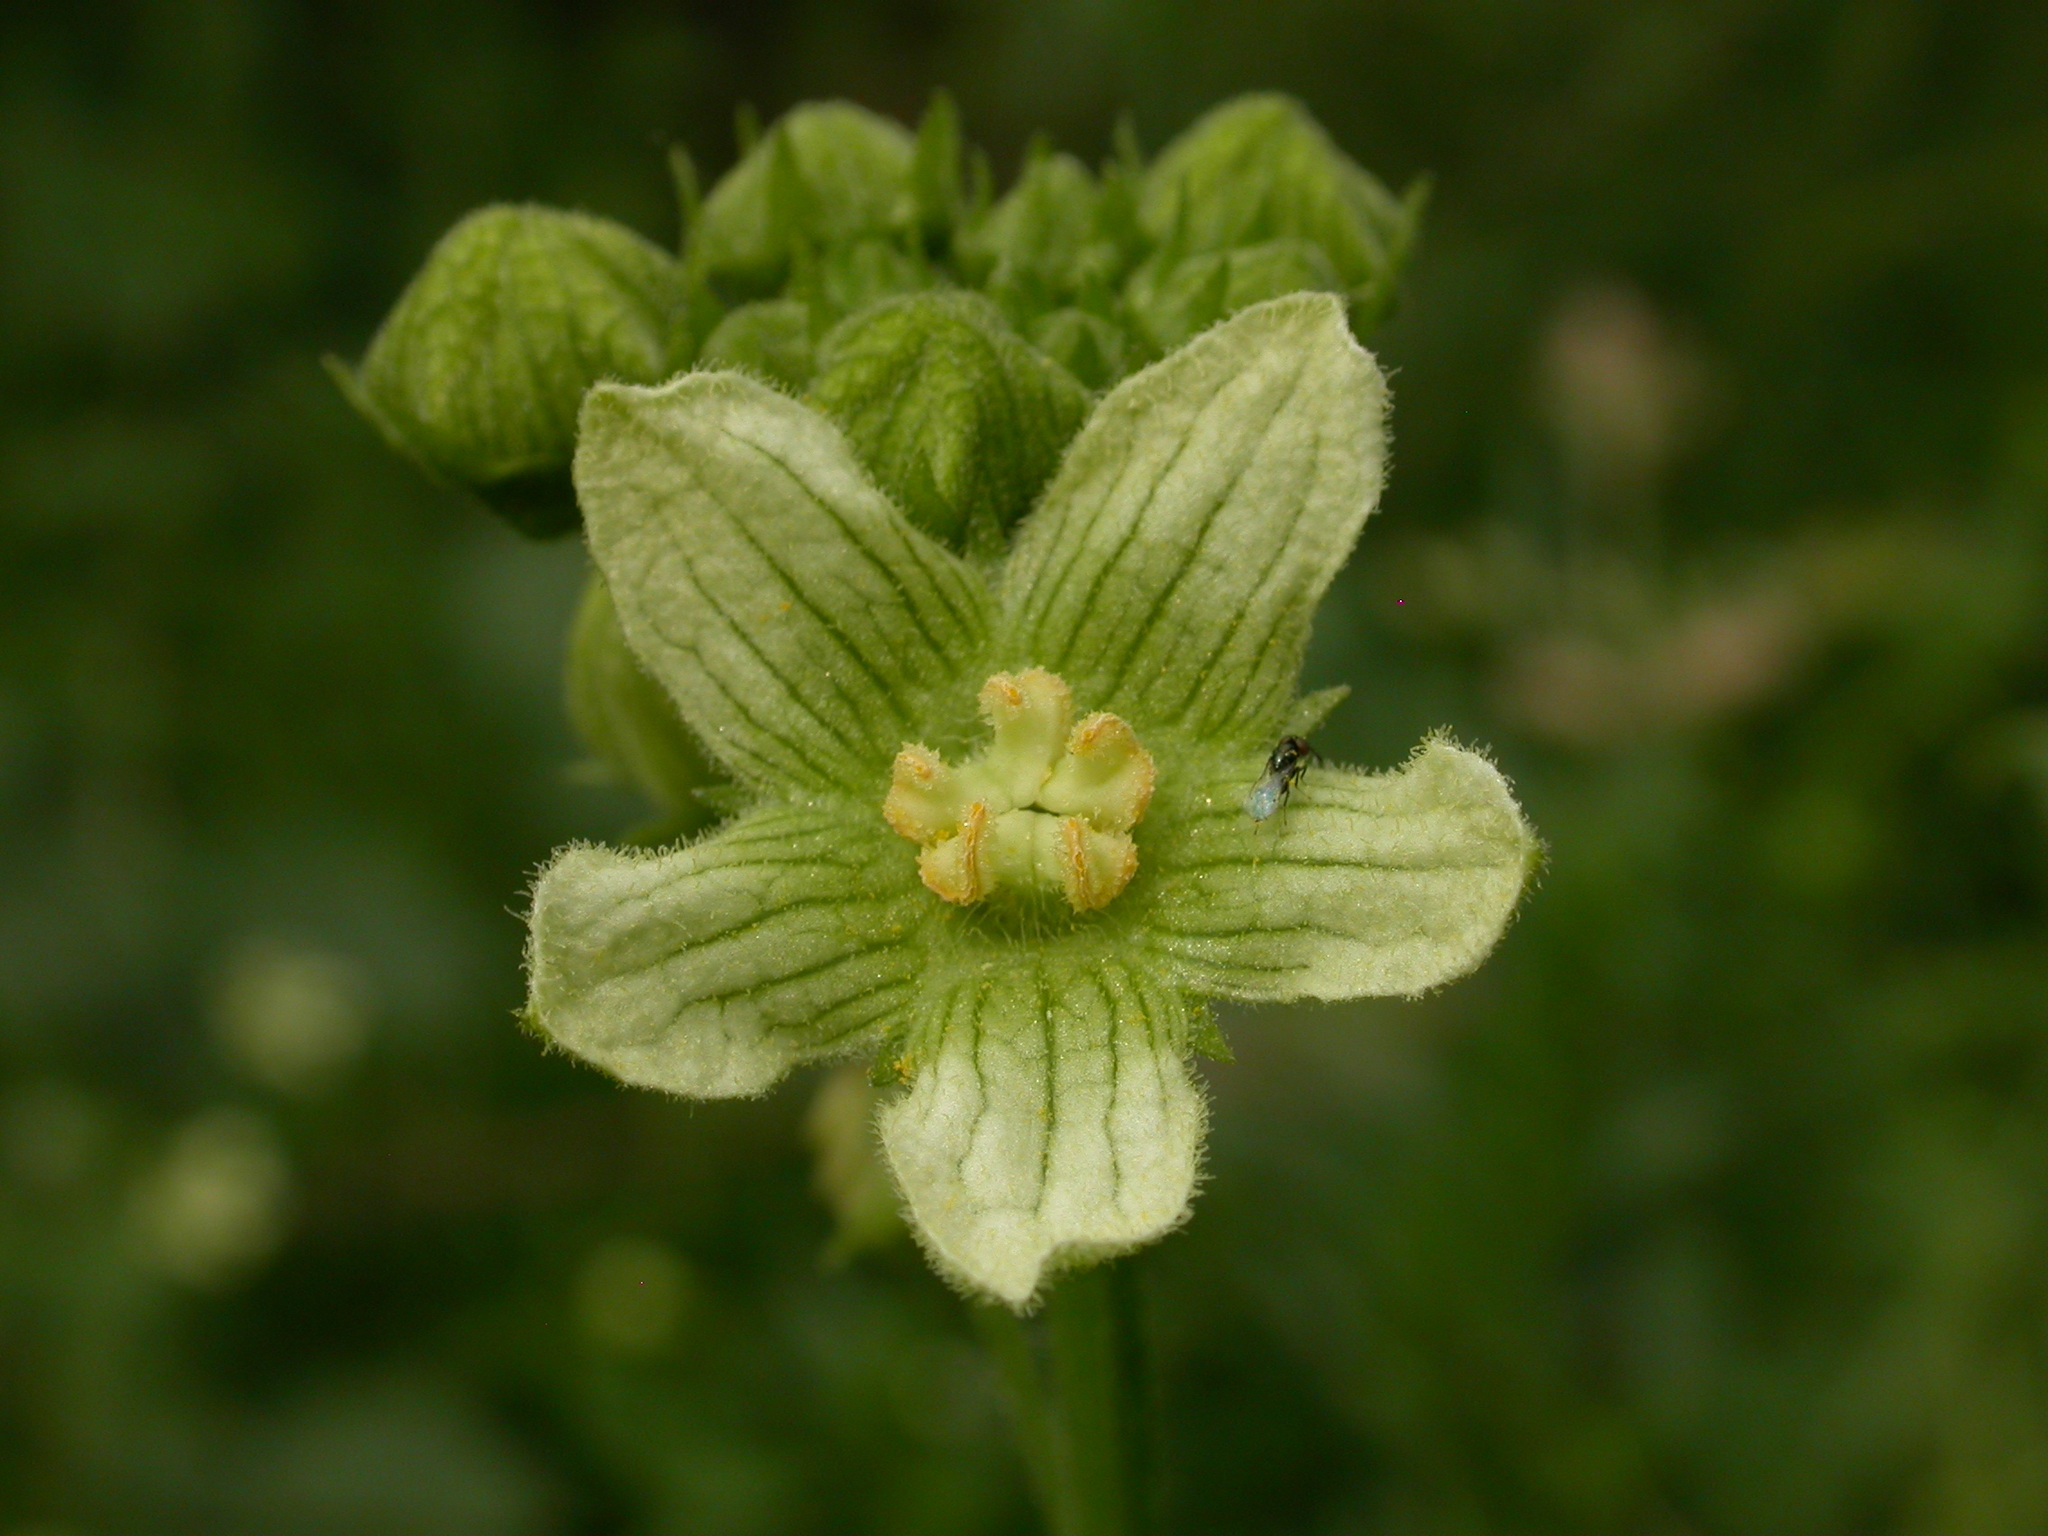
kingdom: Plantae
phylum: Tracheophyta
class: Magnoliopsida
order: Cucurbitales
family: Cucurbitaceae
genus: Bryonia
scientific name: Bryonia cretica
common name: Cretan bryony
